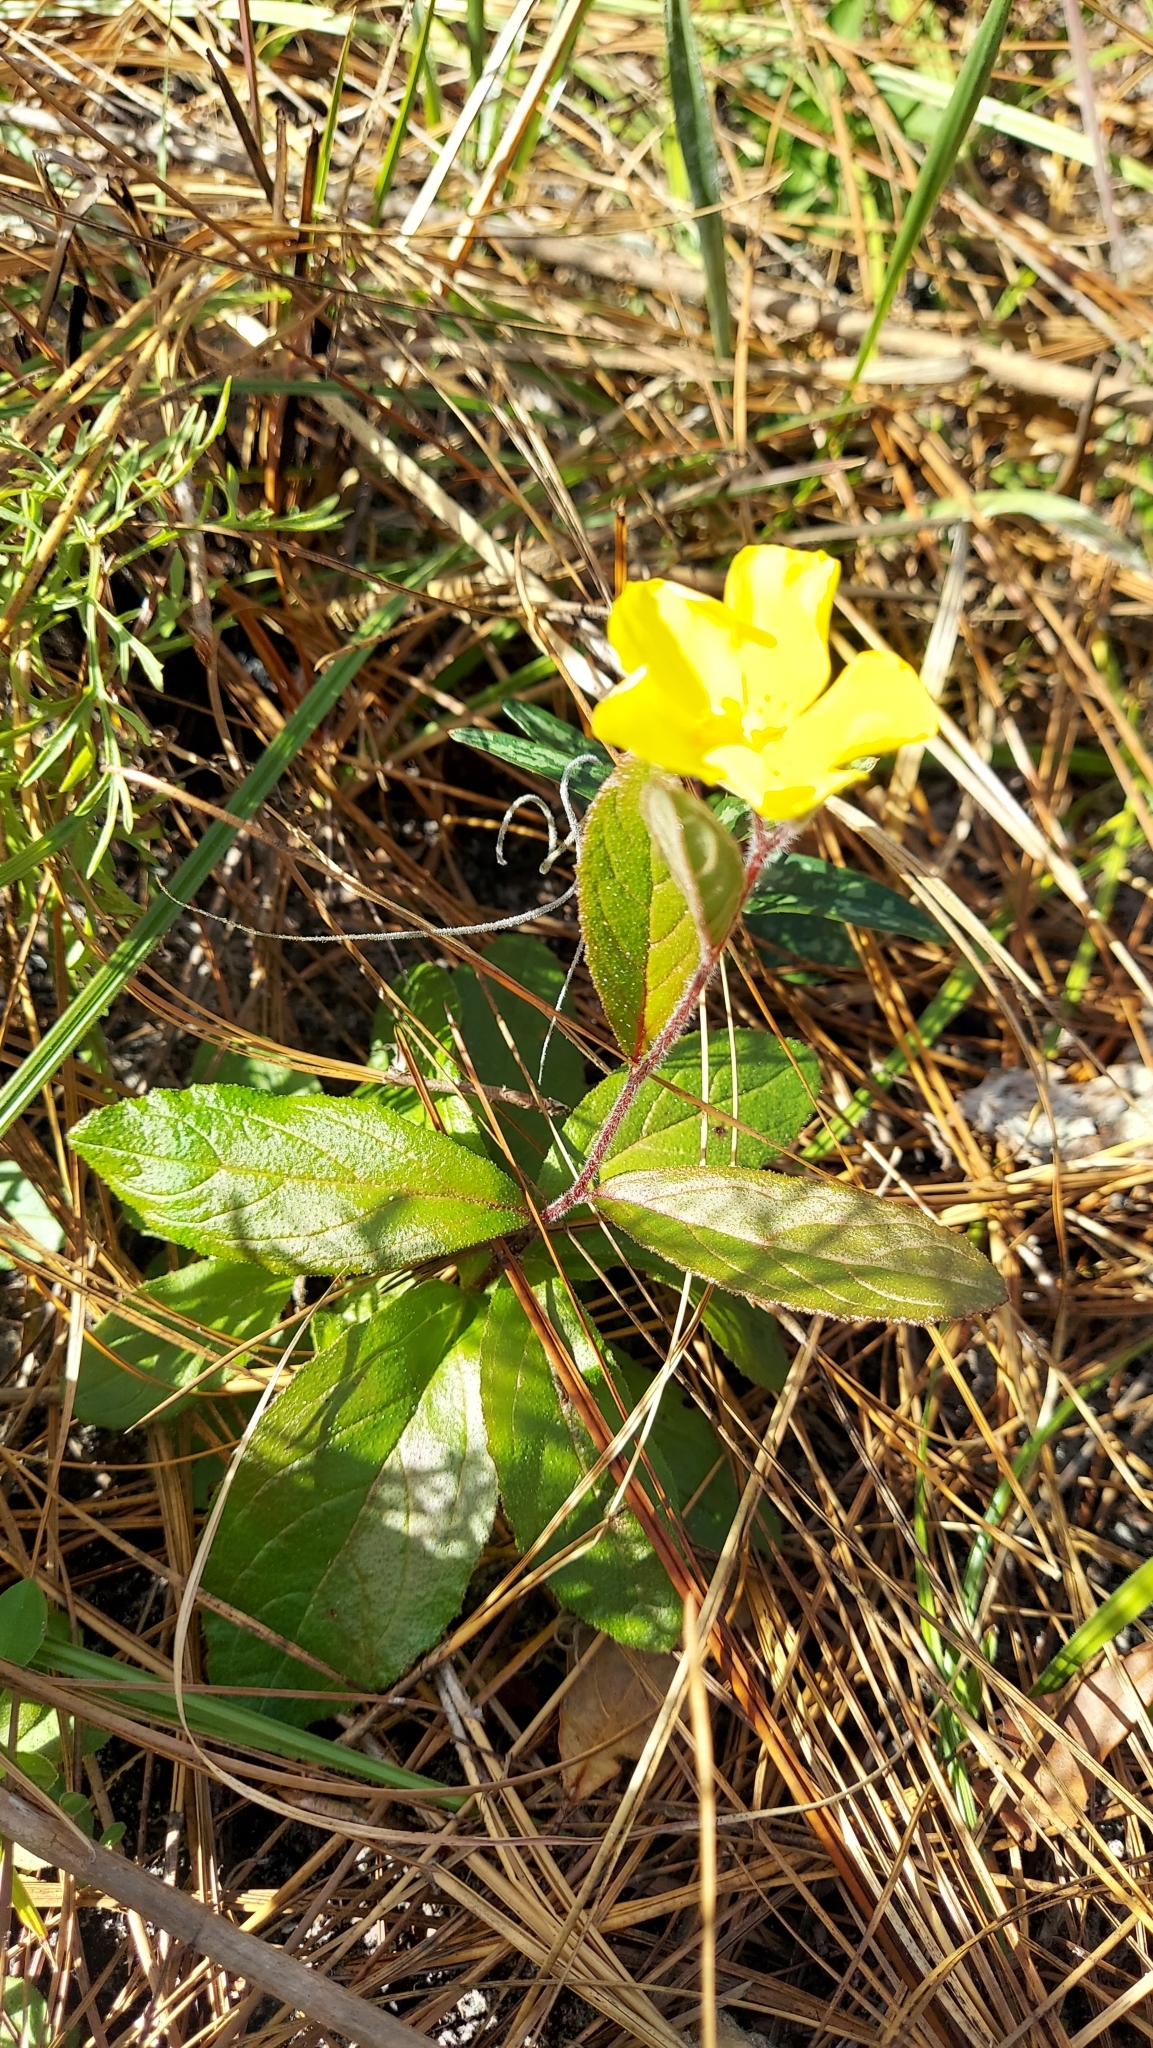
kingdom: Plantae
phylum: Tracheophyta
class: Magnoliopsida
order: Malvales
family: Cistaceae
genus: Crocanthemum
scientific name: Crocanthemum carolinianum
